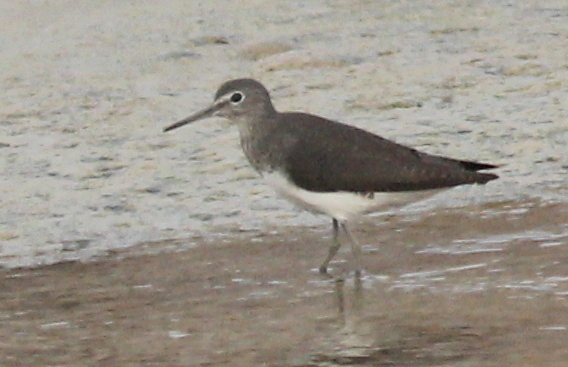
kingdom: Animalia
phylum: Chordata
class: Aves
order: Charadriiformes
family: Scolopacidae
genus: Tringa
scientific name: Tringa ochropus
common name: Green sandpiper
